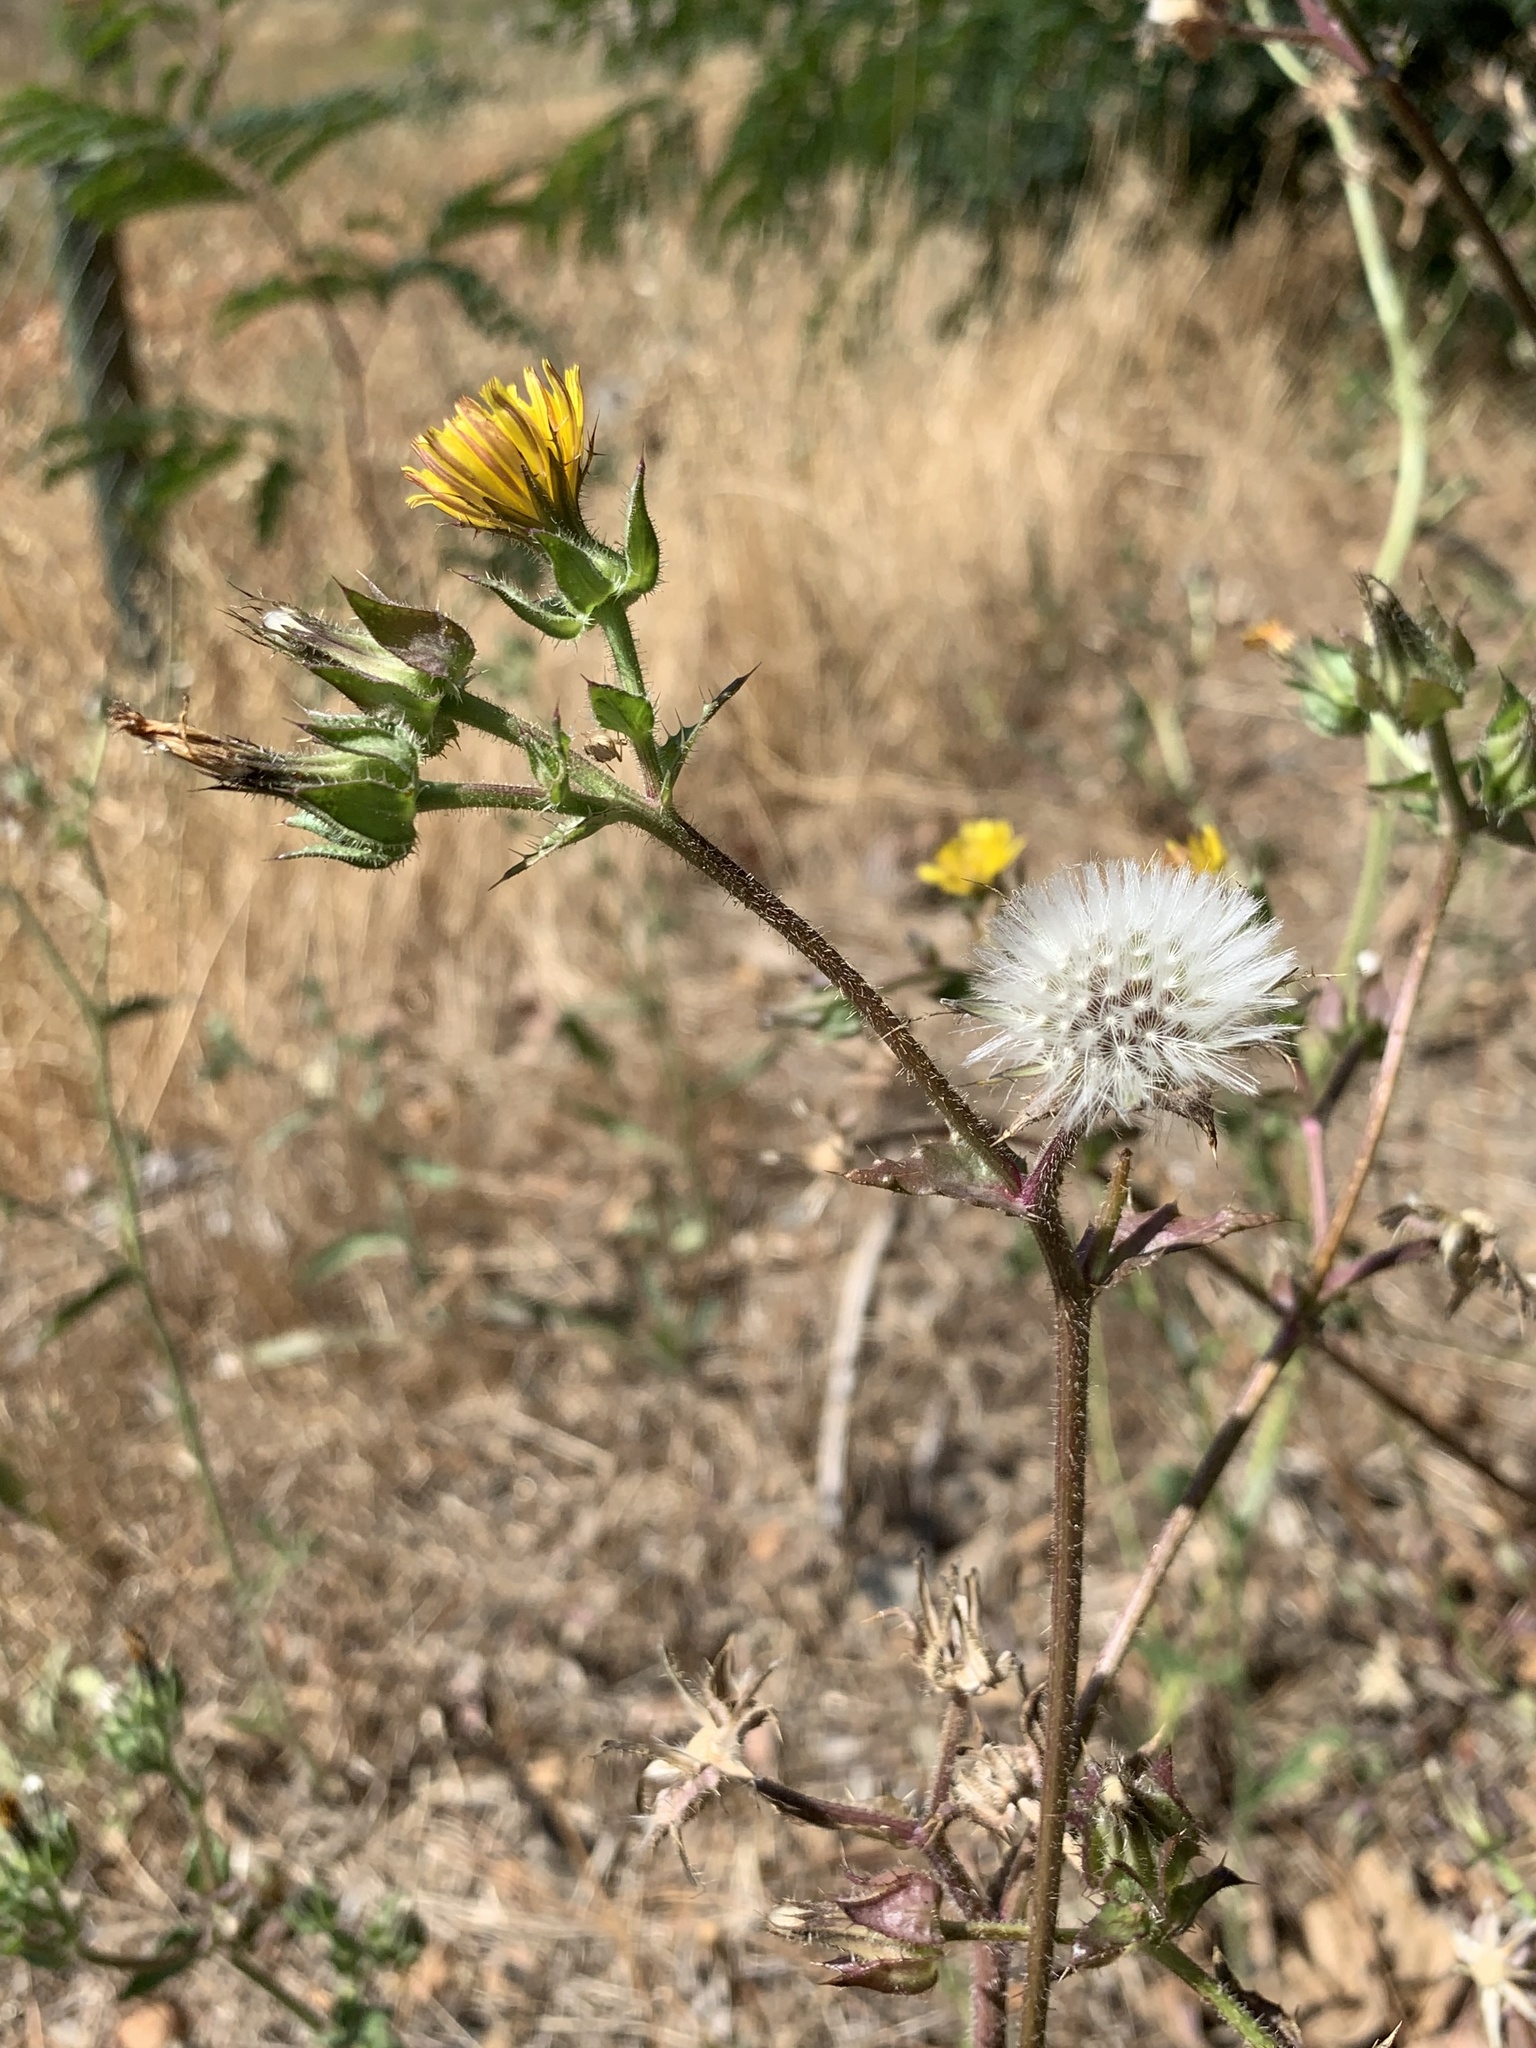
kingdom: Plantae
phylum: Tracheophyta
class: Magnoliopsida
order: Asterales
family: Asteraceae
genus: Helminthotheca
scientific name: Helminthotheca echioides
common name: Ox-tongue
